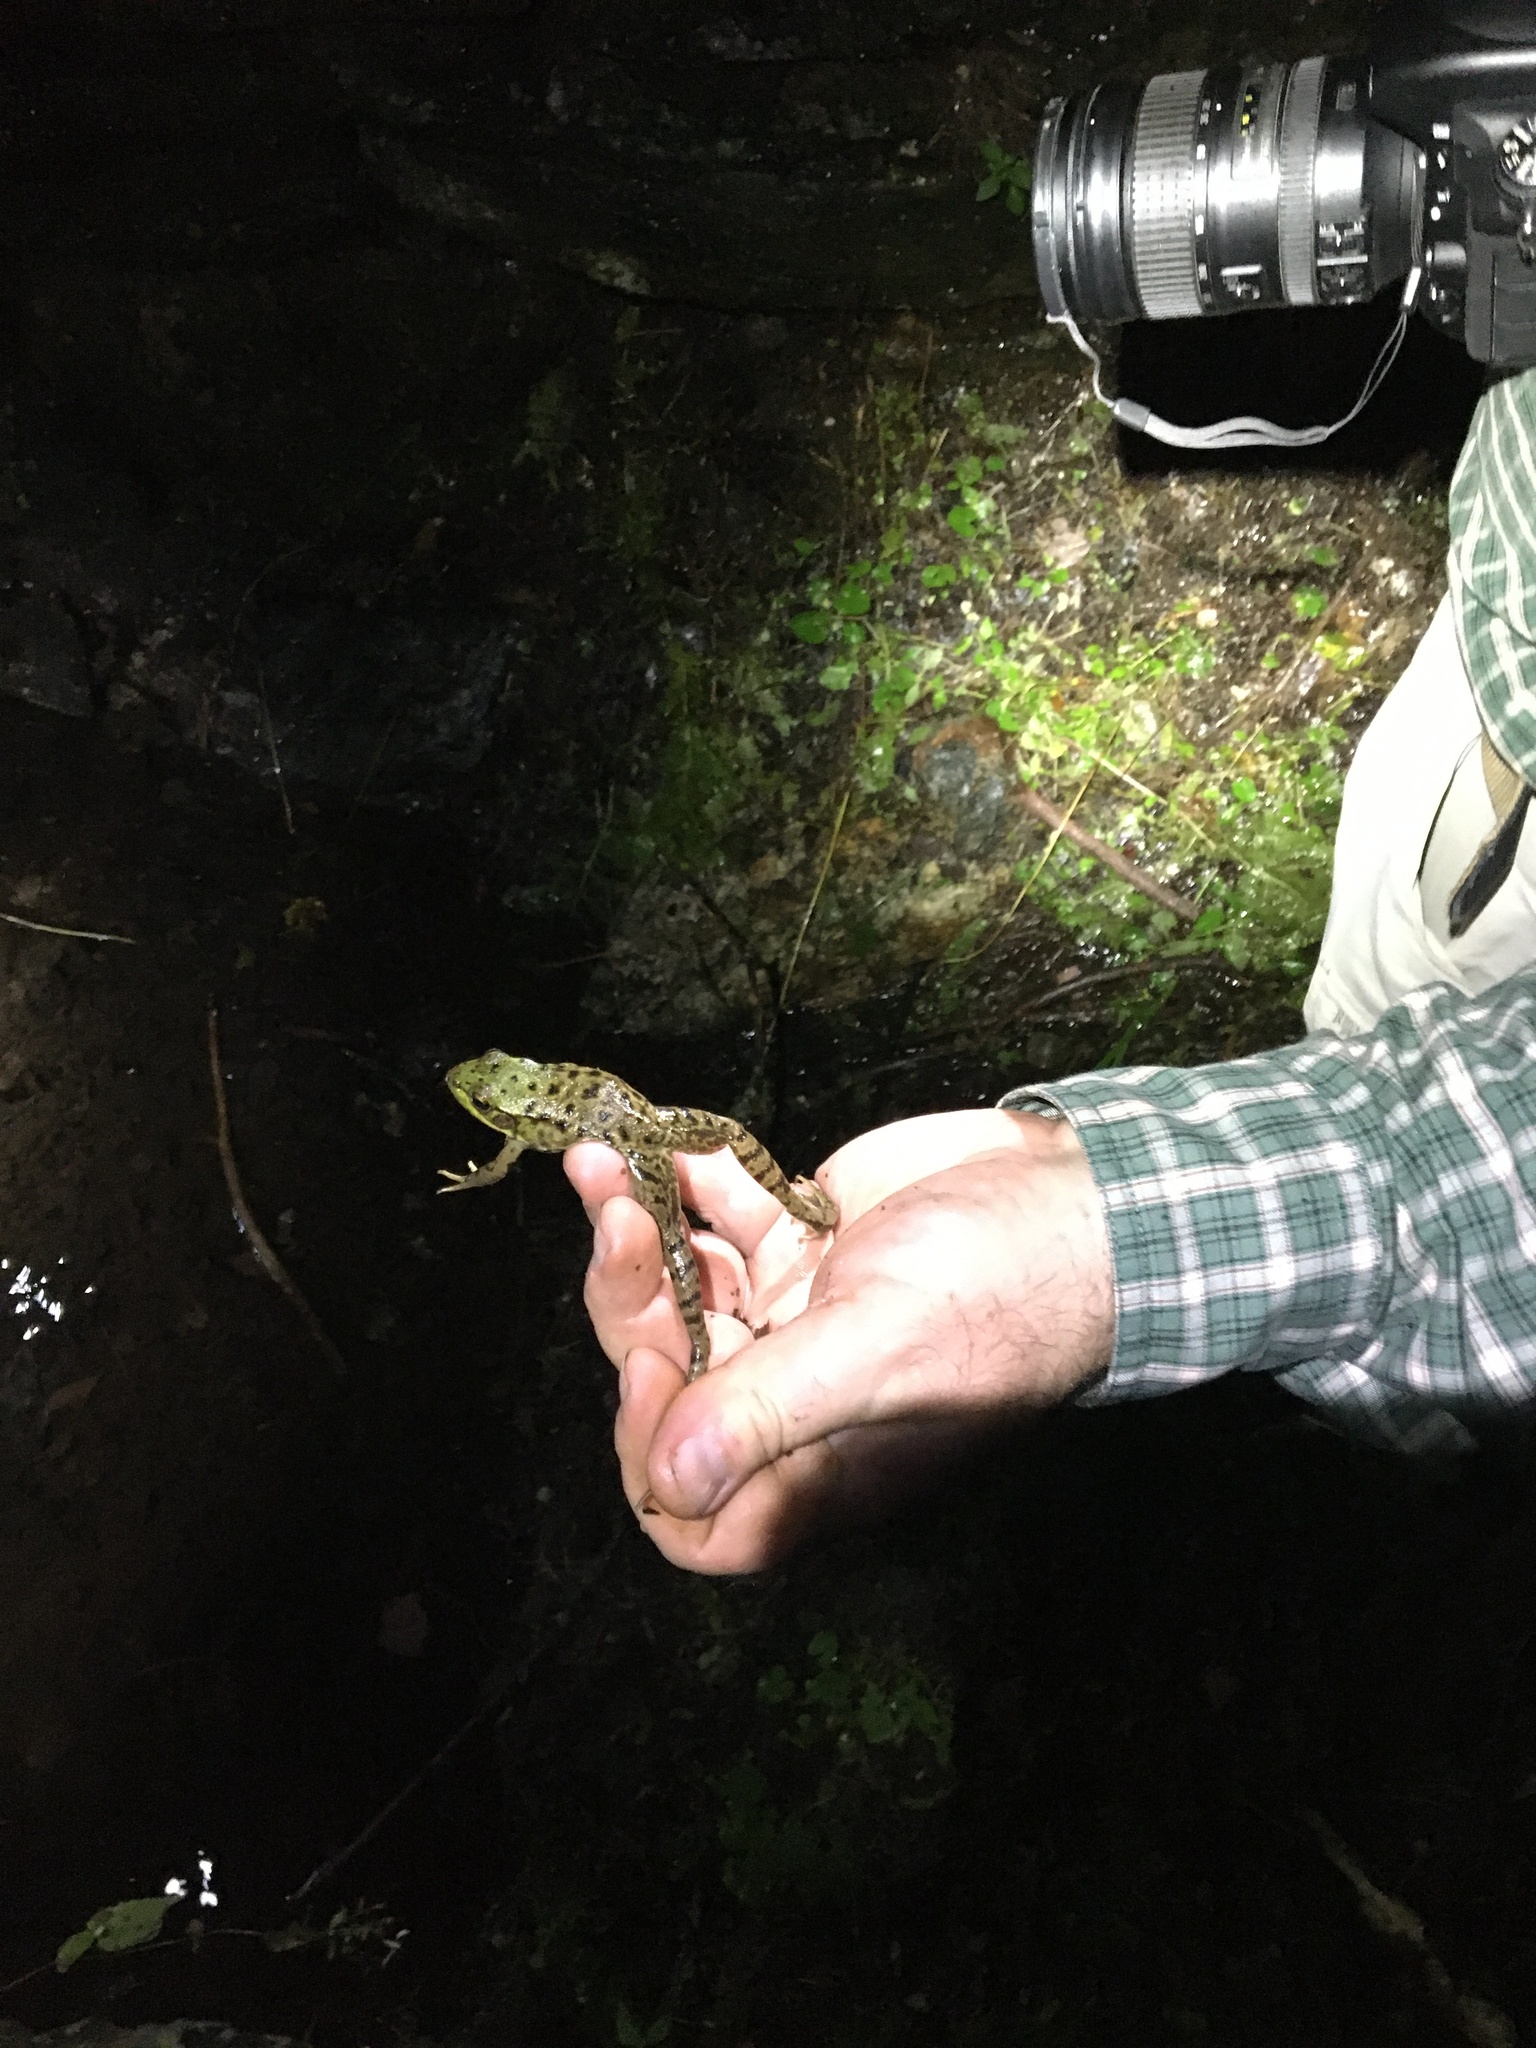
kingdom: Animalia
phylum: Chordata
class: Amphibia
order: Anura
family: Ranidae
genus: Lithobates
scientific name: Lithobates clamitans
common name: Green frog
